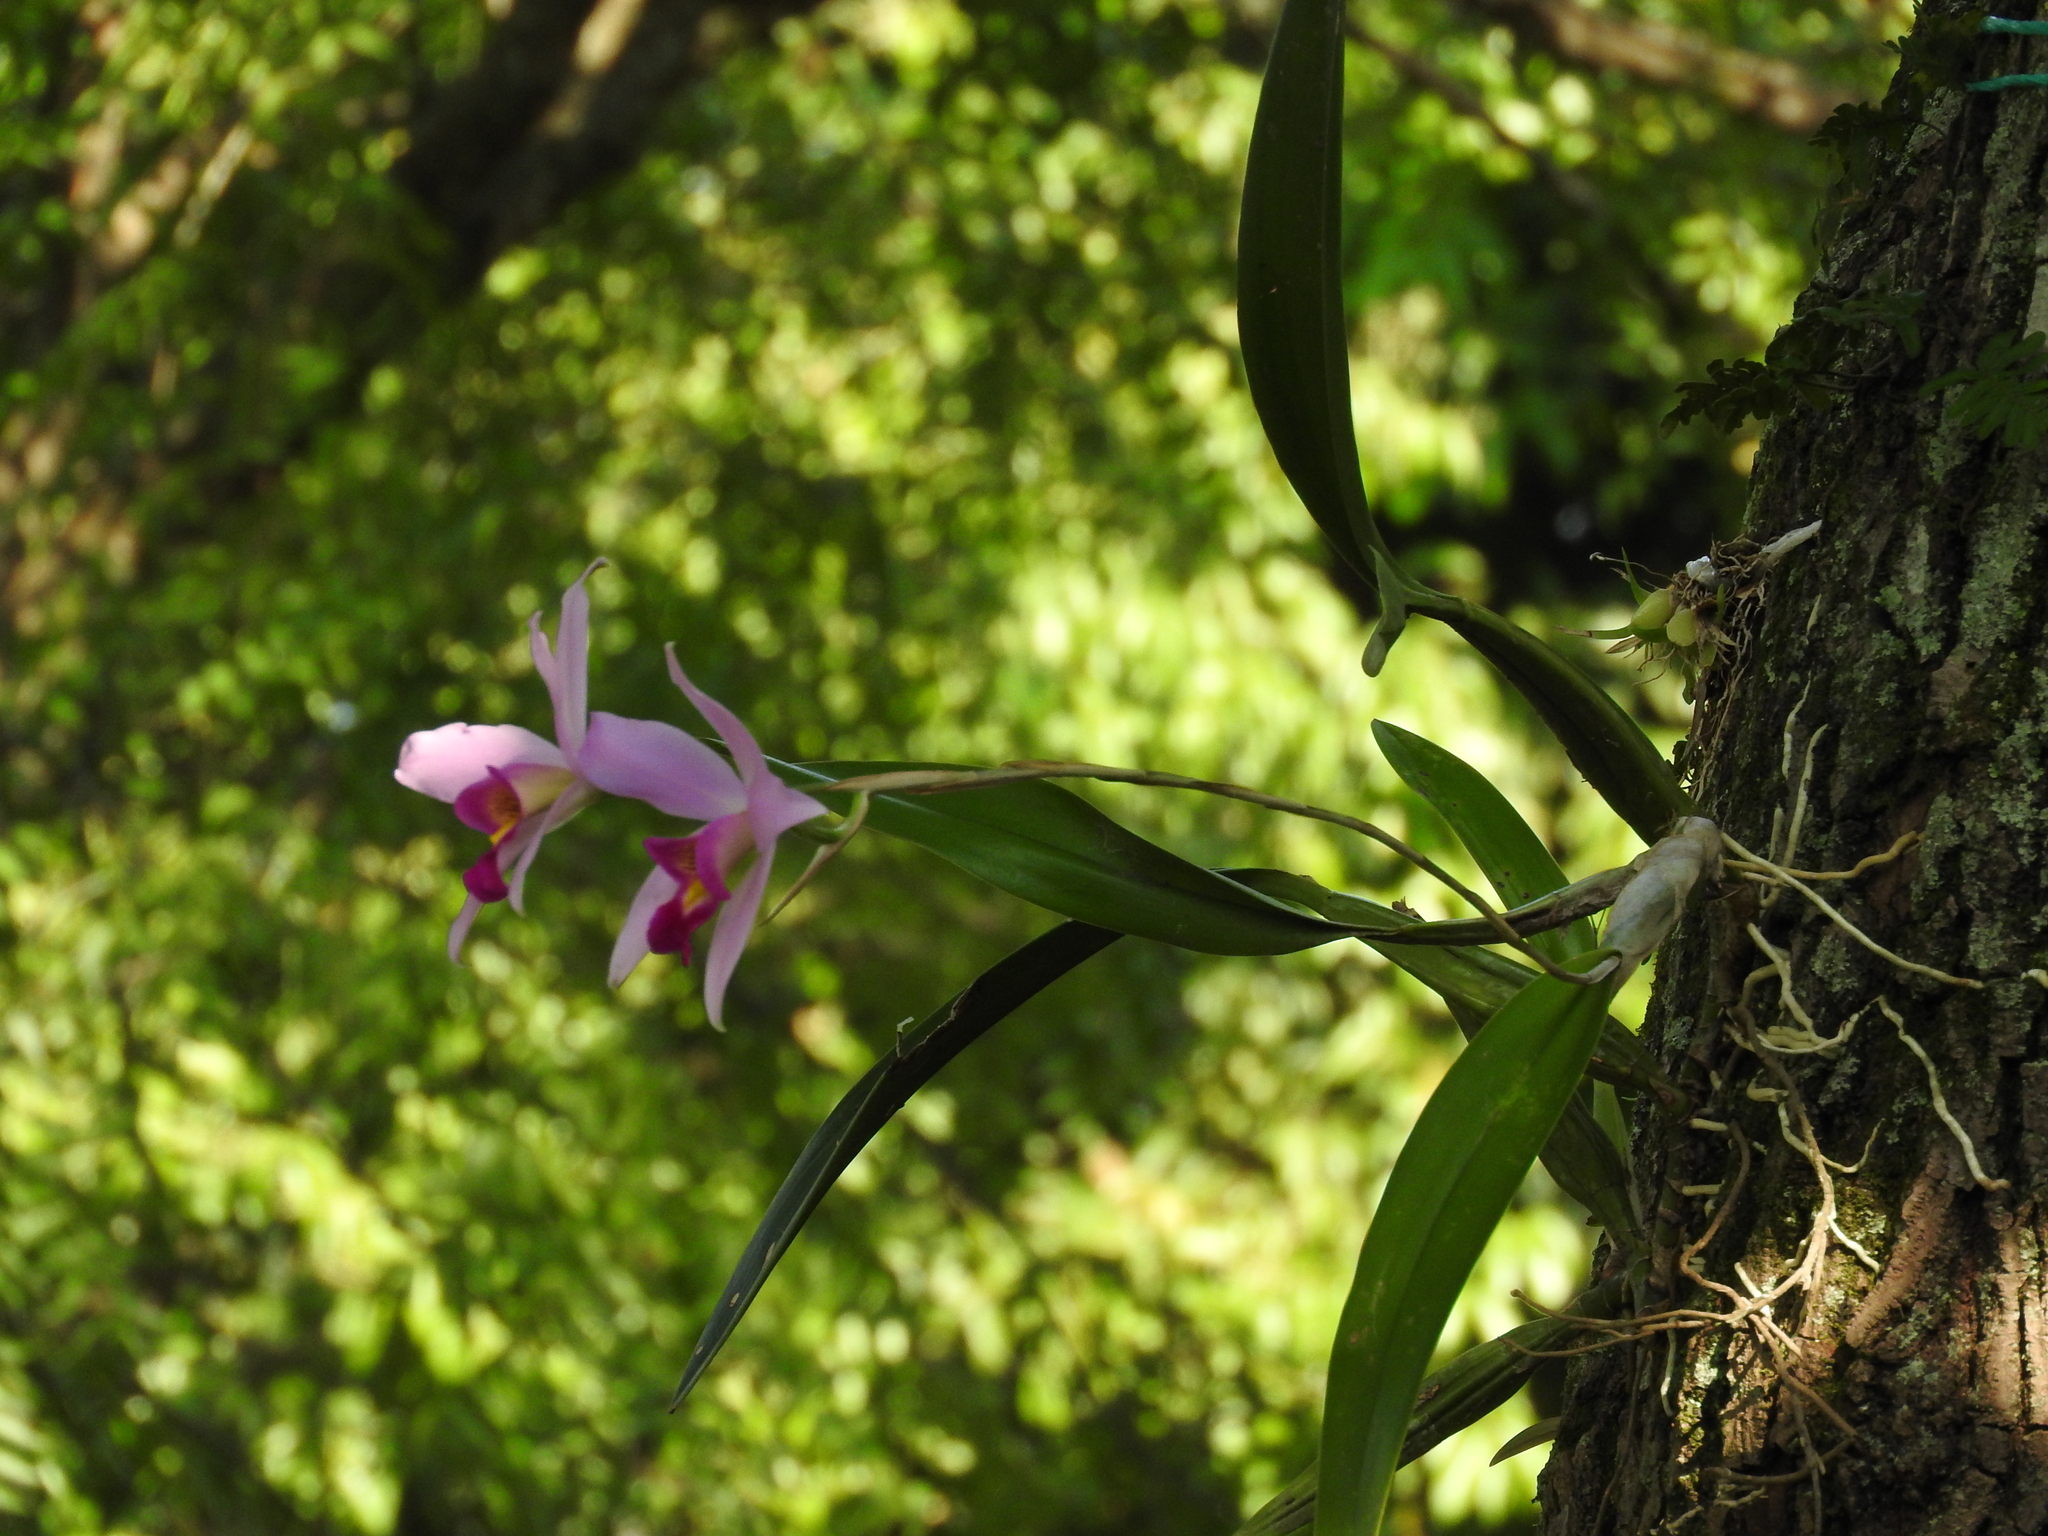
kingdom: Plantae
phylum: Tracheophyta
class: Liliopsida
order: Asparagales
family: Orchidaceae
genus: Laelia
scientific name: Laelia anceps
